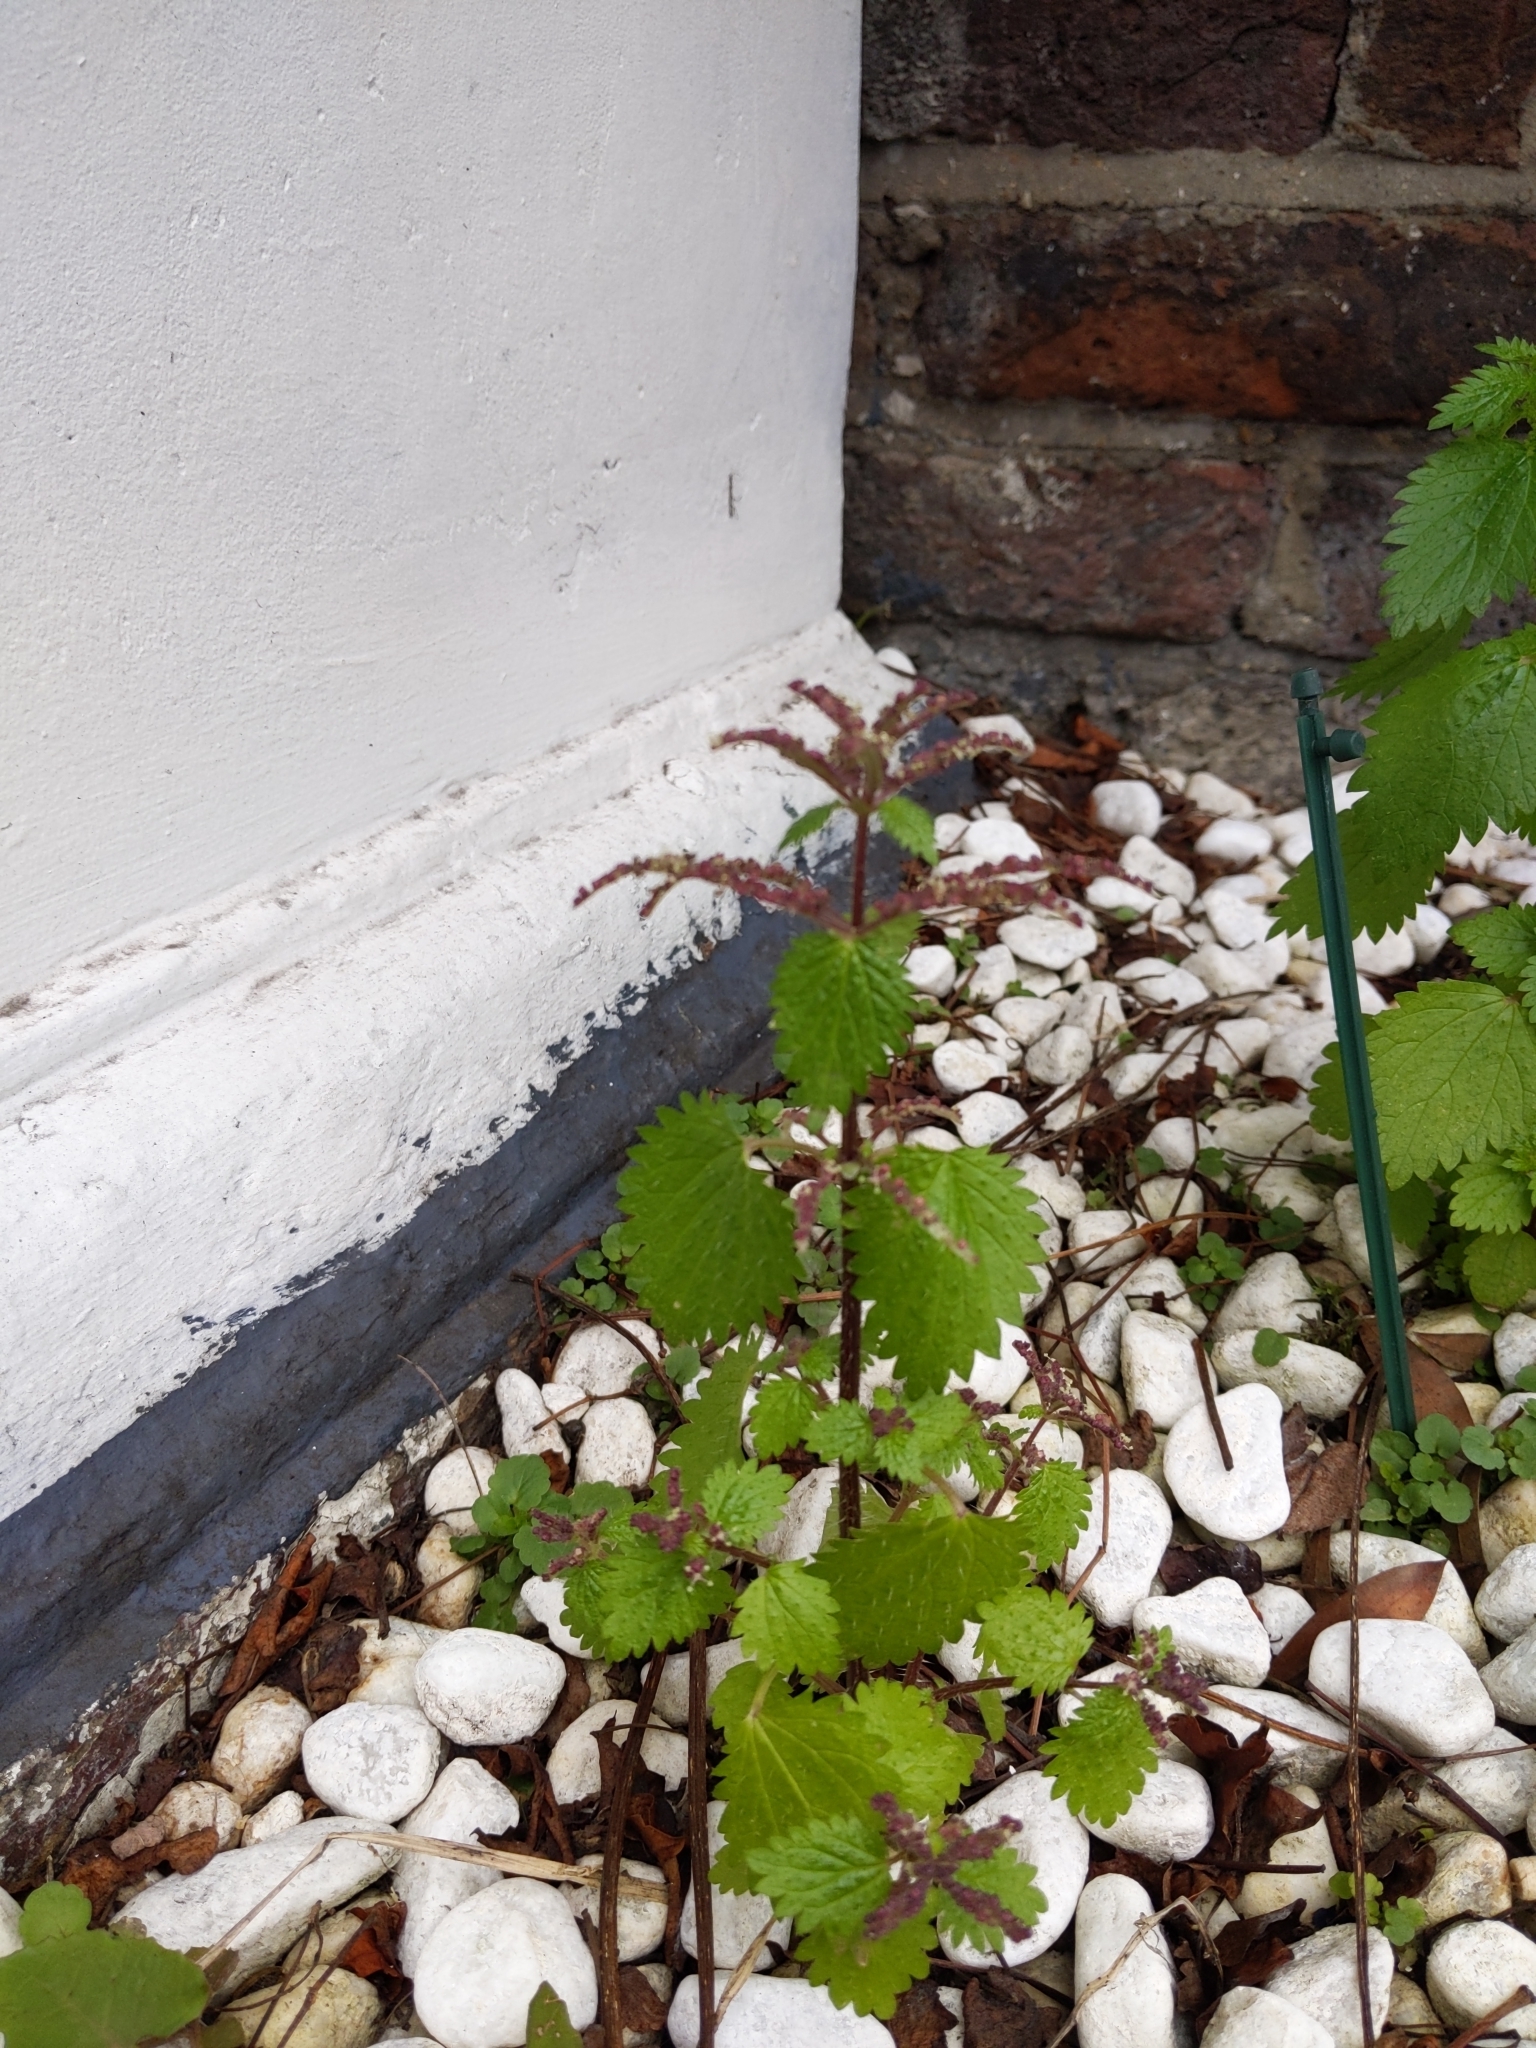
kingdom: Plantae
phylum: Tracheophyta
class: Magnoliopsida
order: Rosales
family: Urticaceae
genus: Urtica
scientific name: Urtica membranacea
